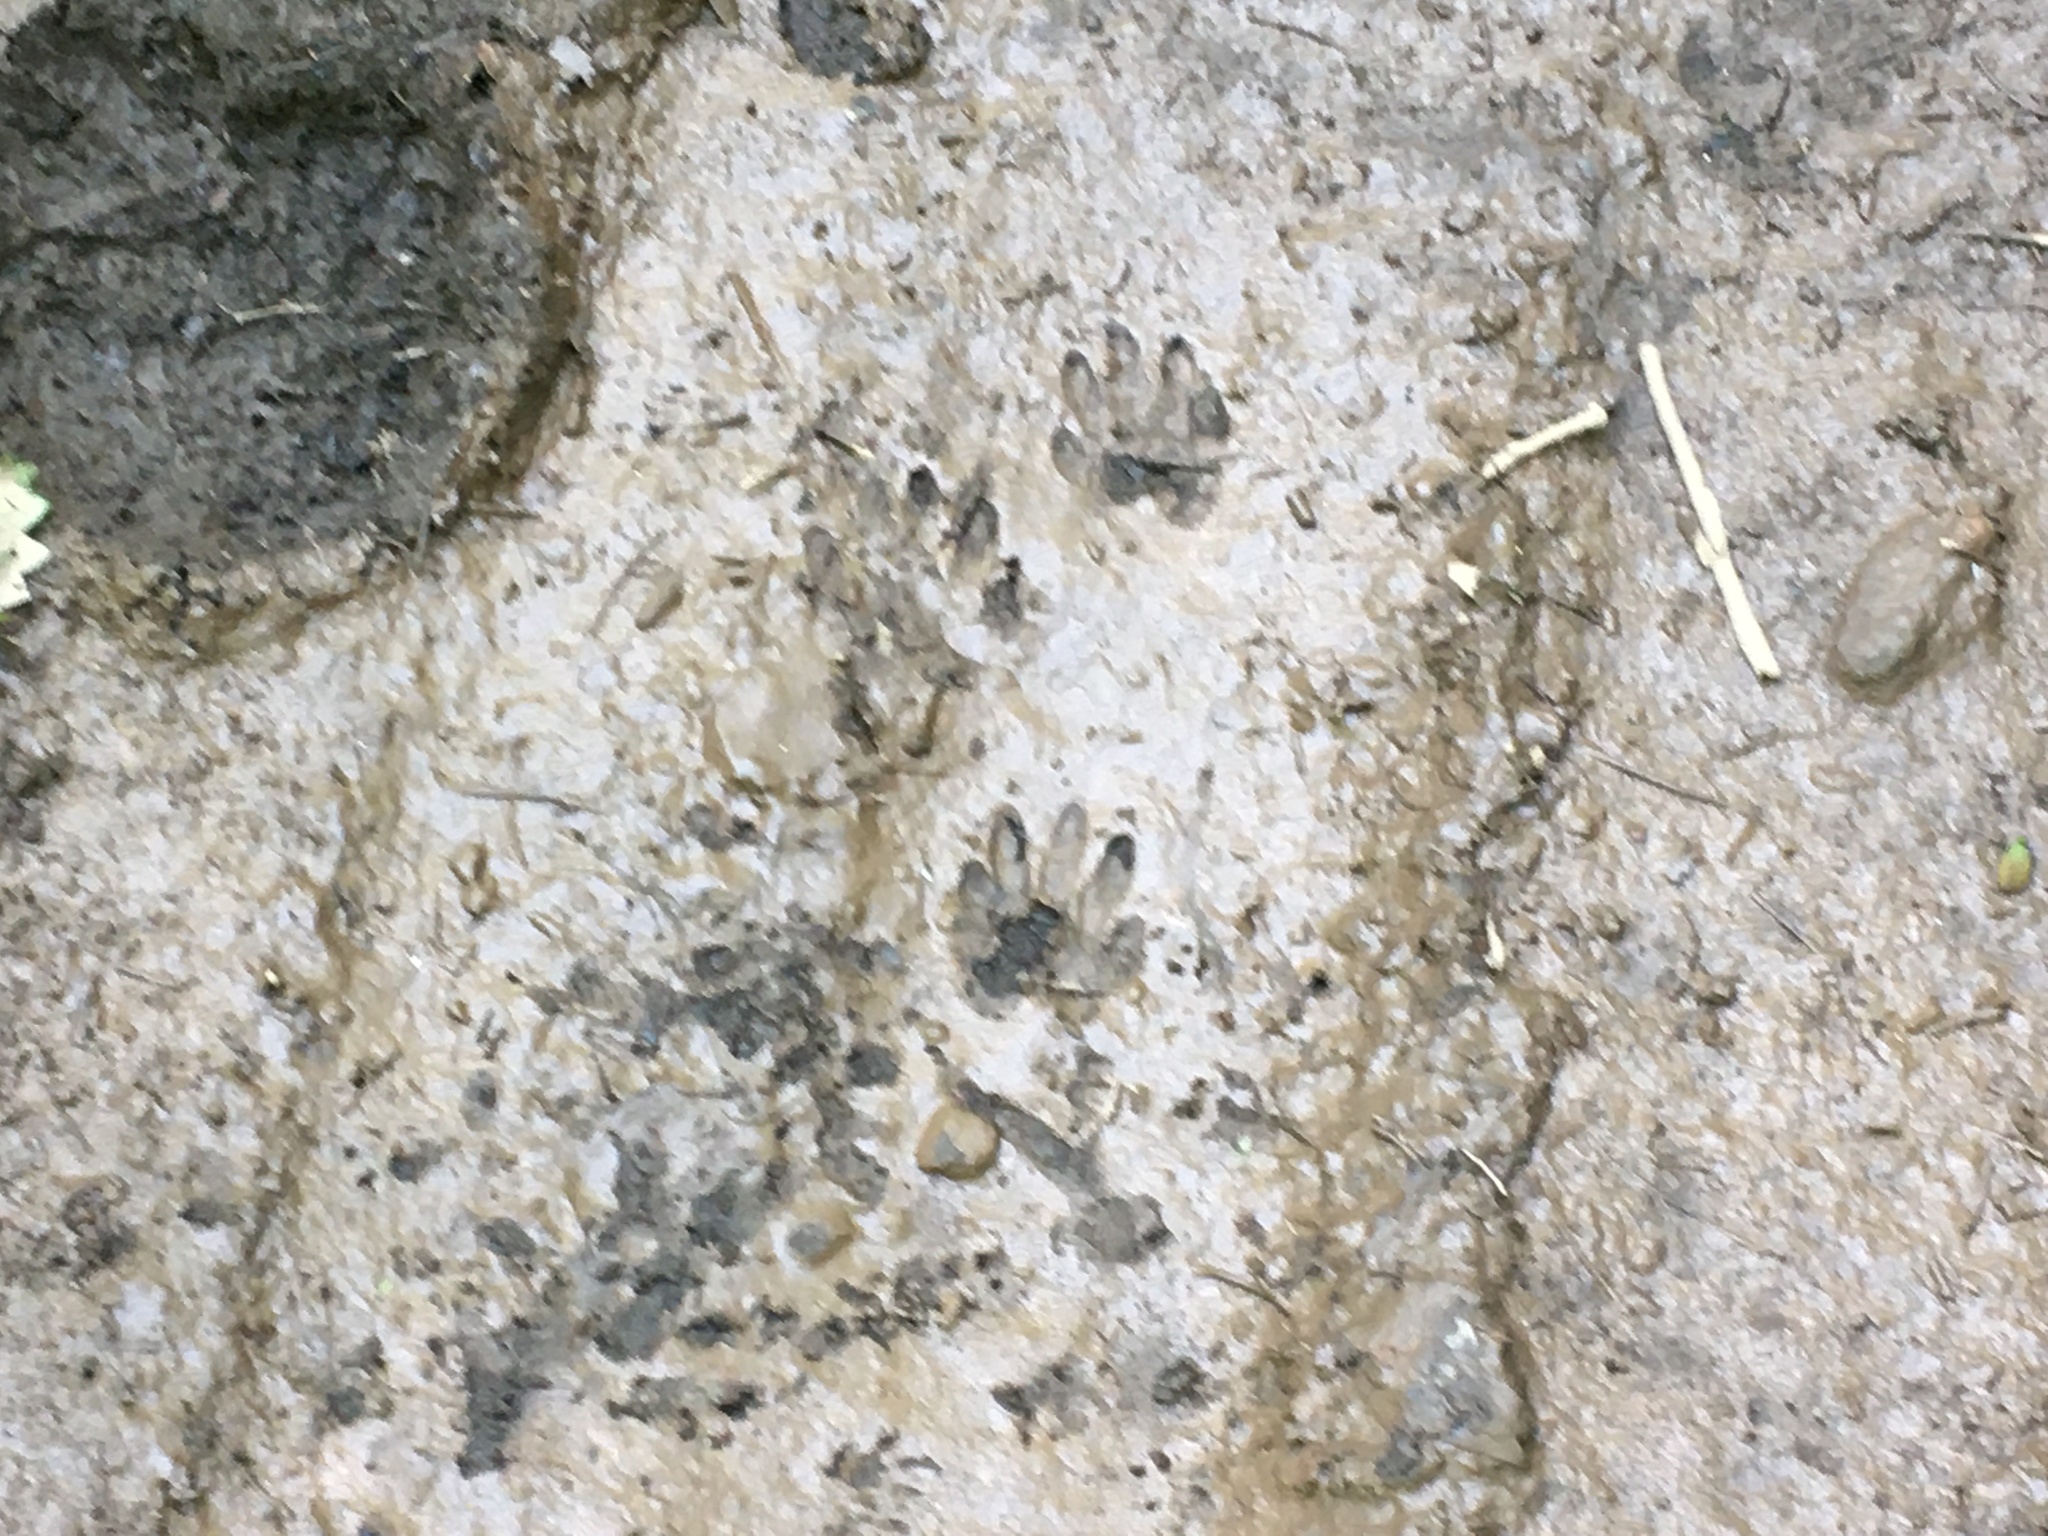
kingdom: Animalia
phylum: Chordata
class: Mammalia
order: Carnivora
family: Procyonidae
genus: Procyon
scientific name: Procyon lotor
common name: Raccoon
